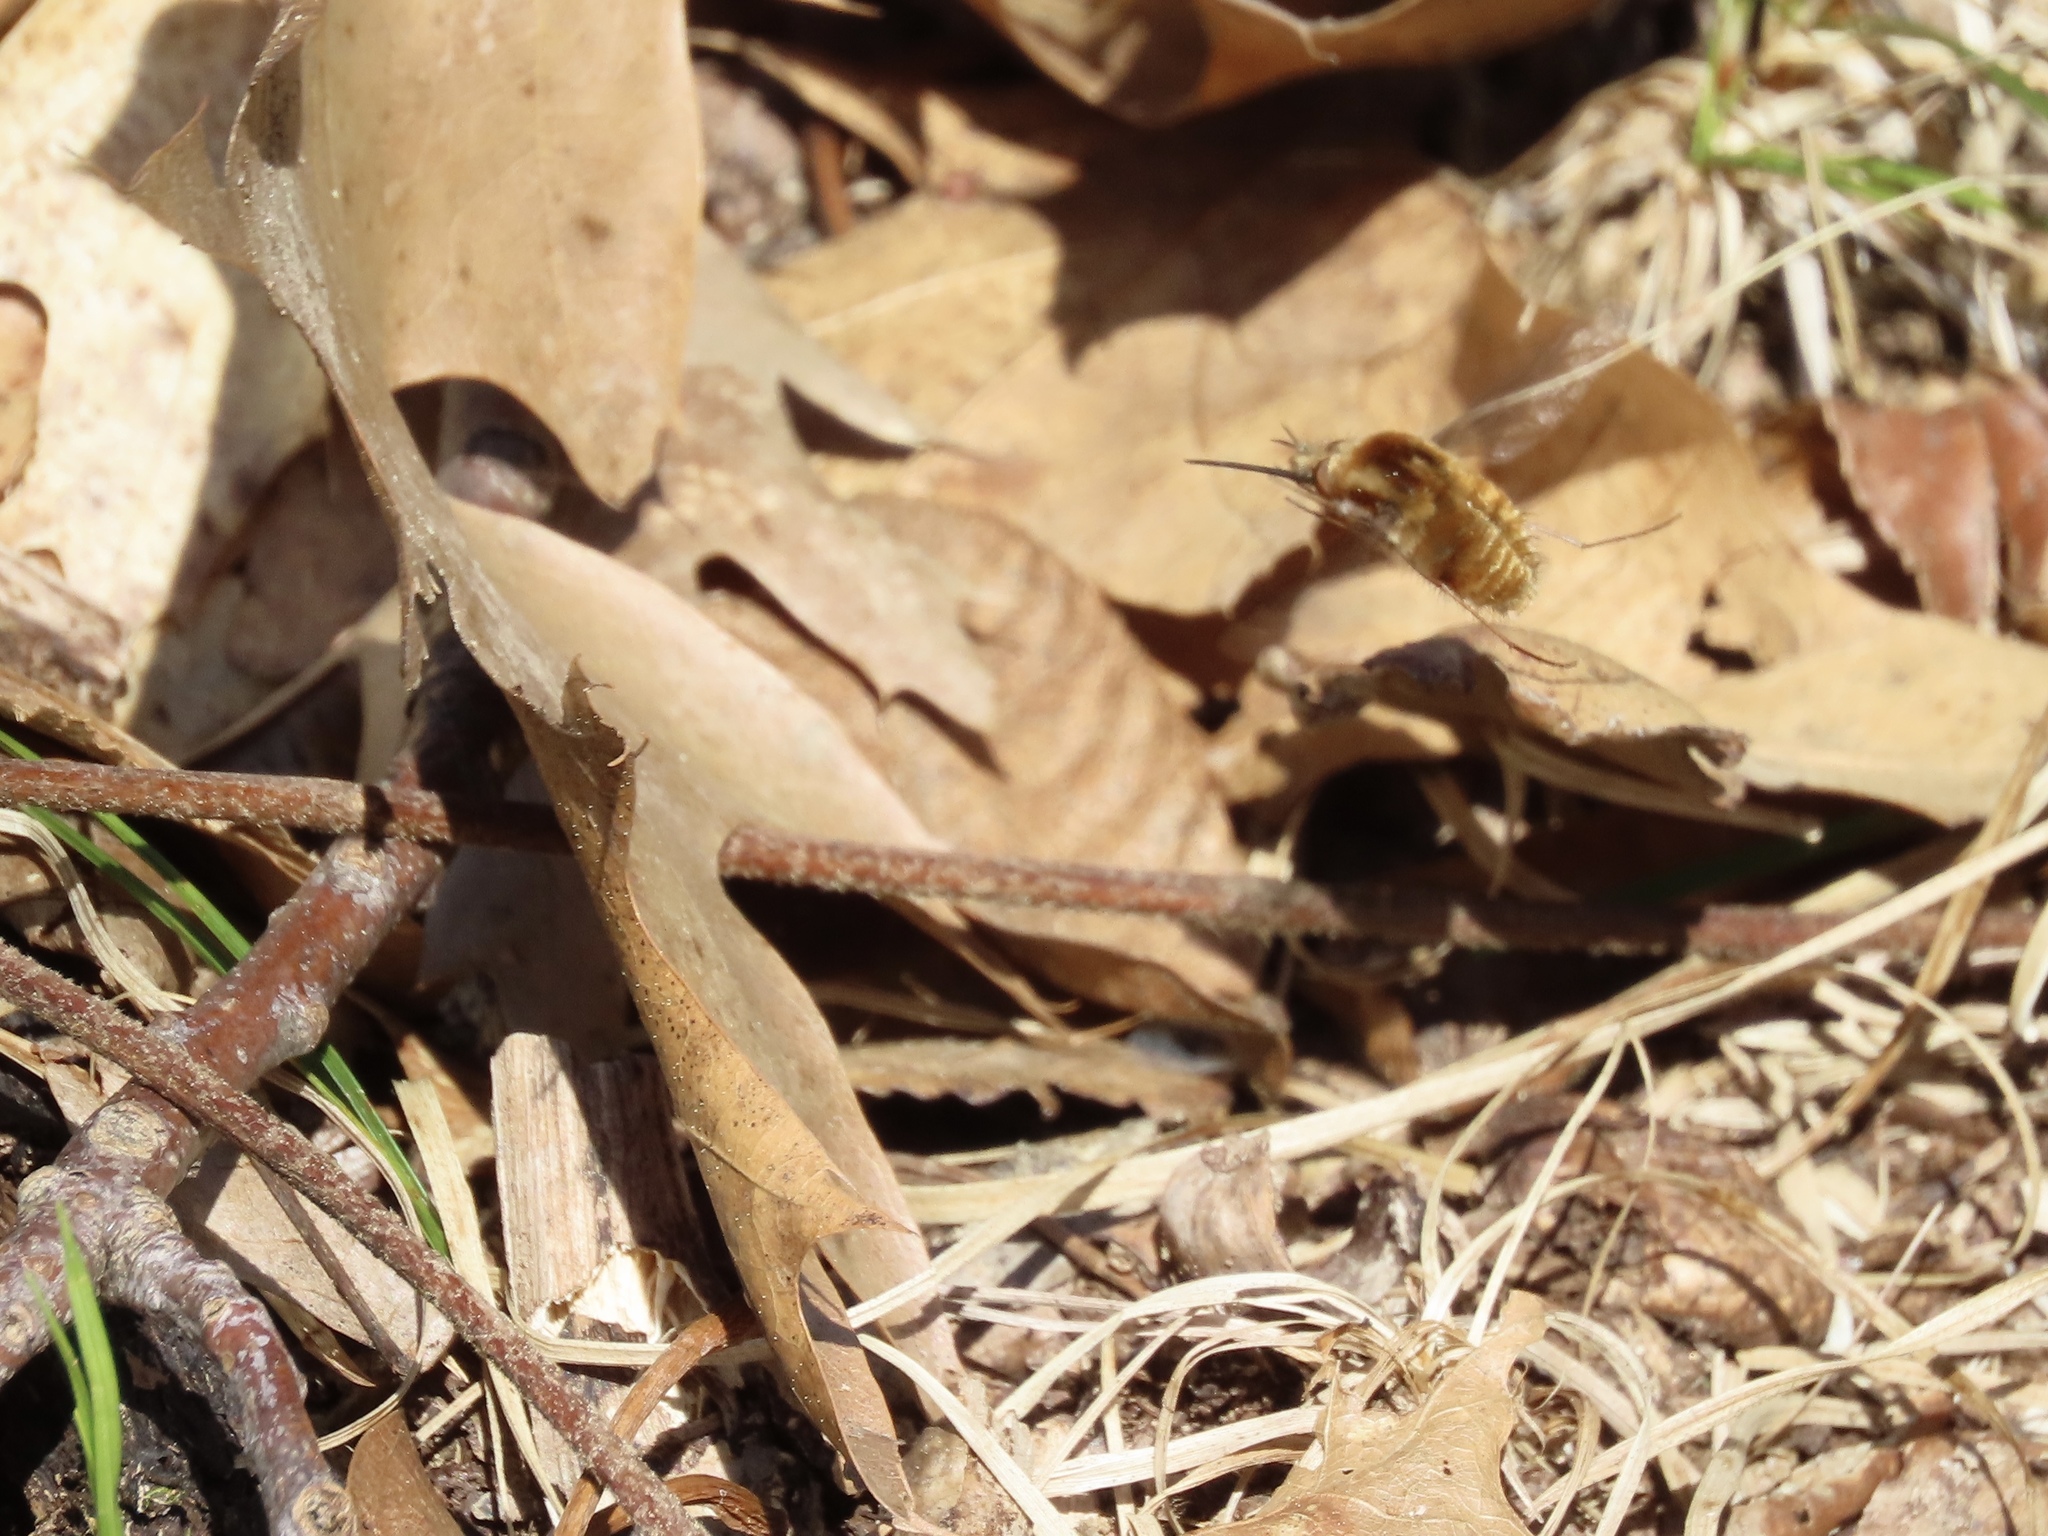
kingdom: Animalia
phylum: Arthropoda
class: Insecta
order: Diptera
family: Bombyliidae
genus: Bombylius
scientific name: Bombylius major
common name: Bee fly
